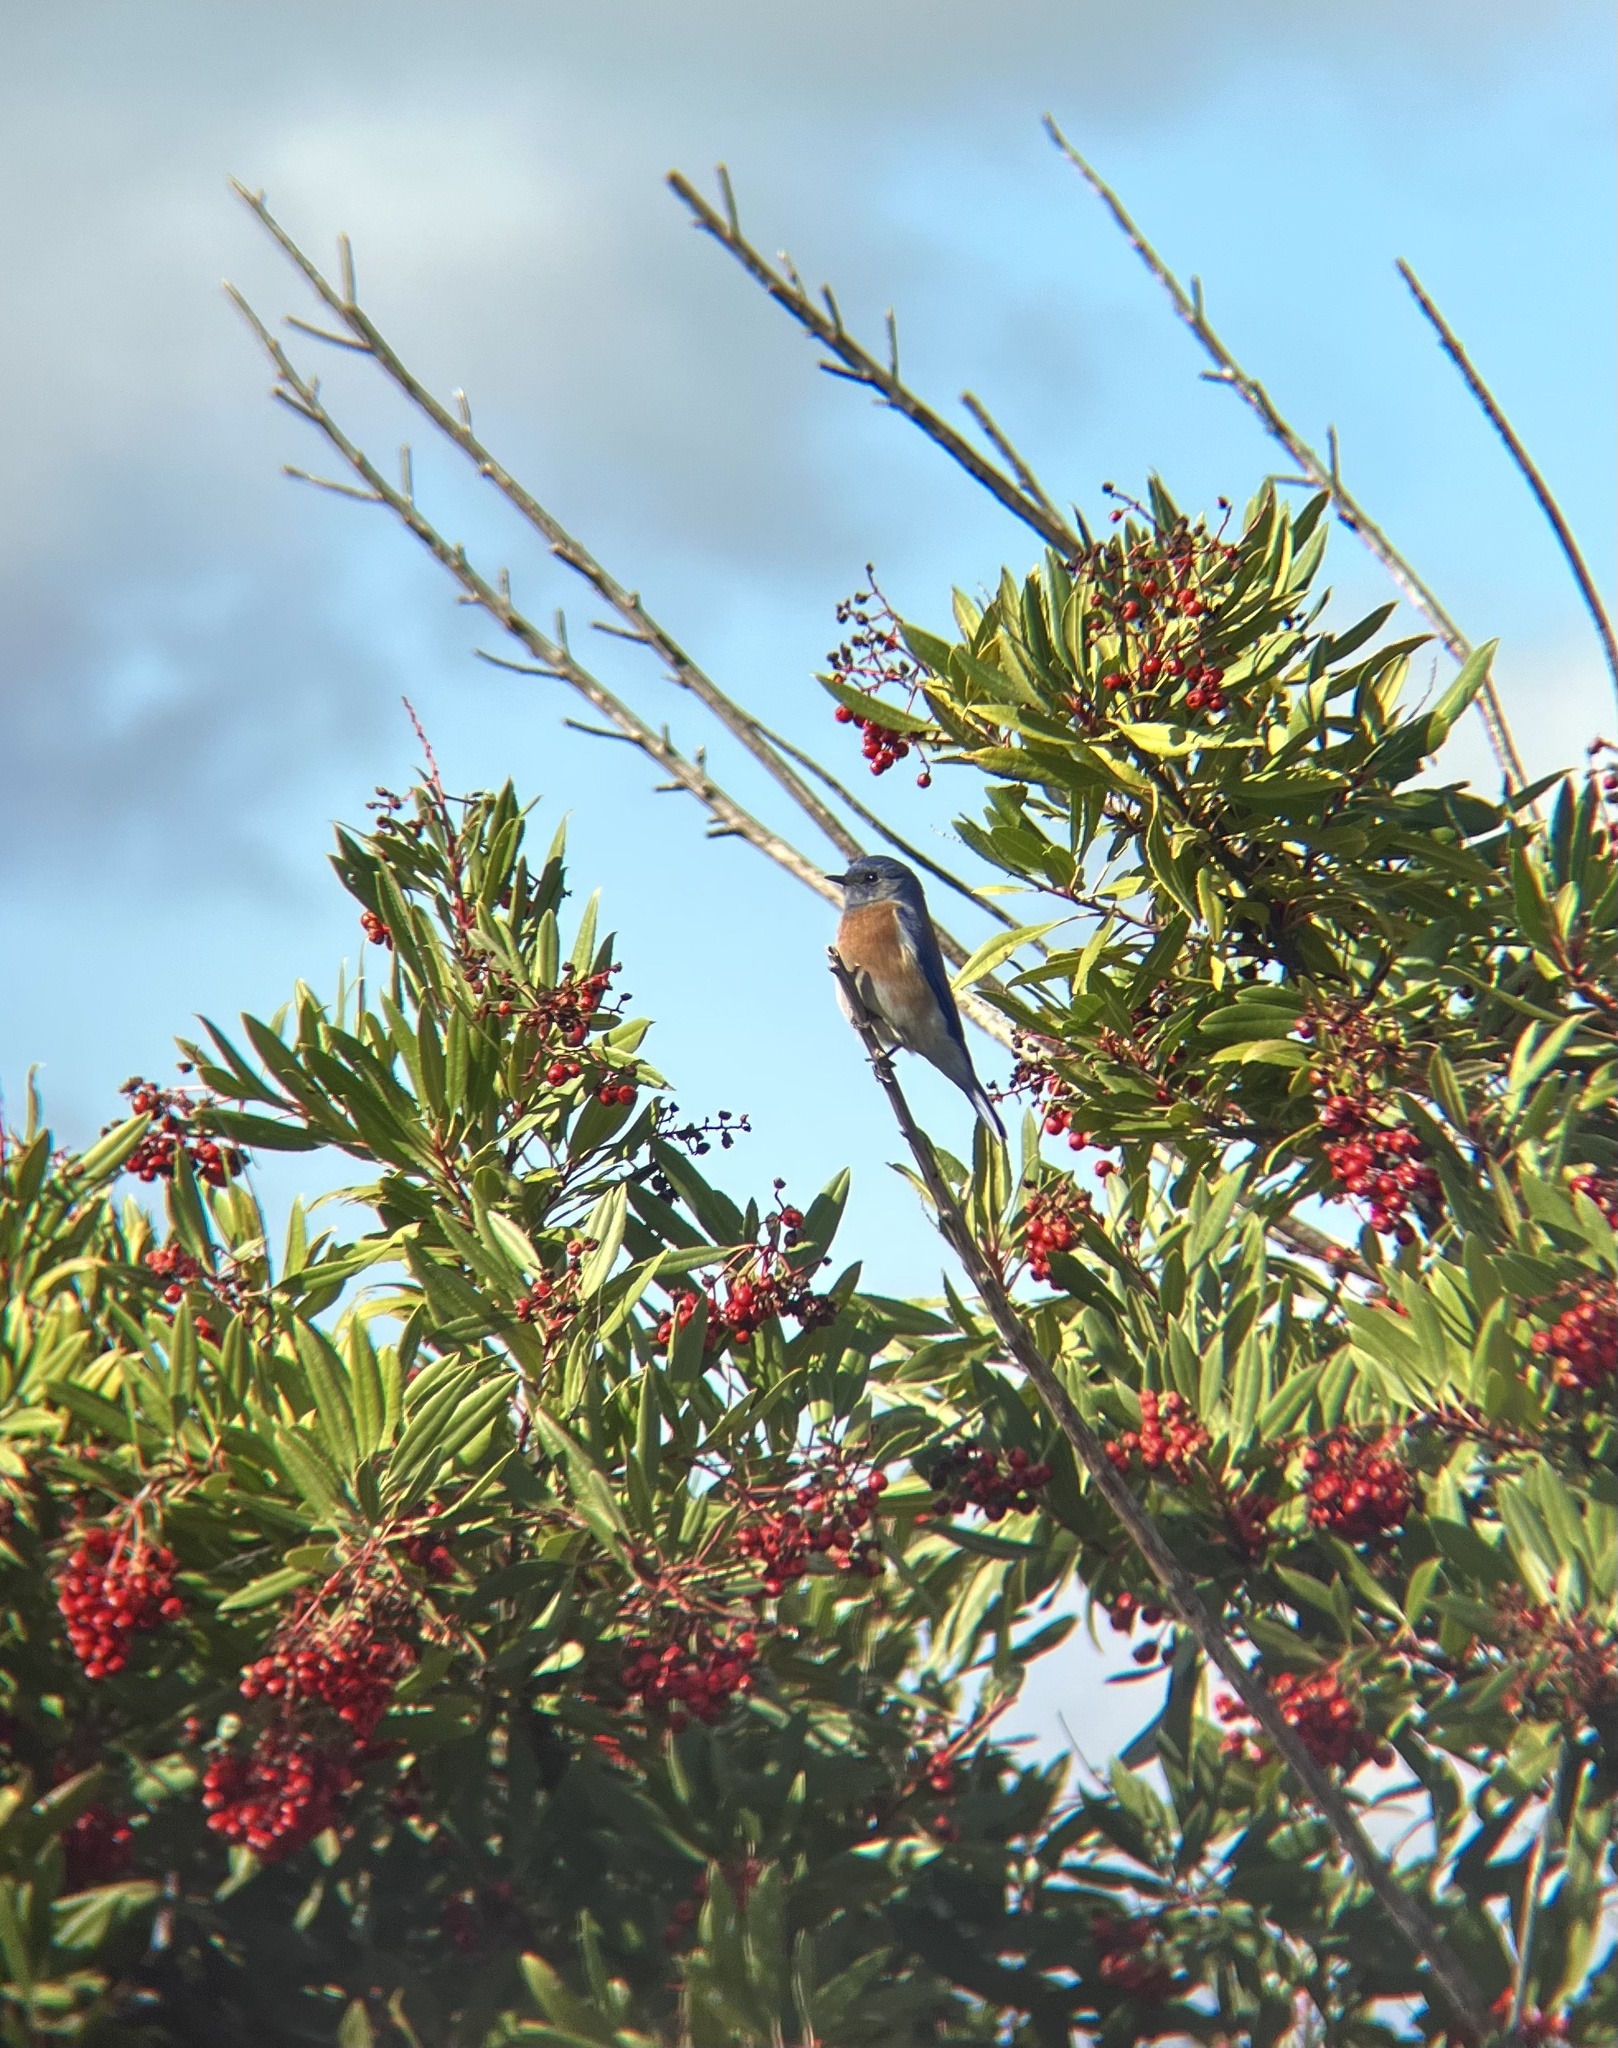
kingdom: Animalia
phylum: Chordata
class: Aves
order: Passeriformes
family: Turdidae
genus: Sialia
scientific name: Sialia mexicana
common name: Western bluebird
